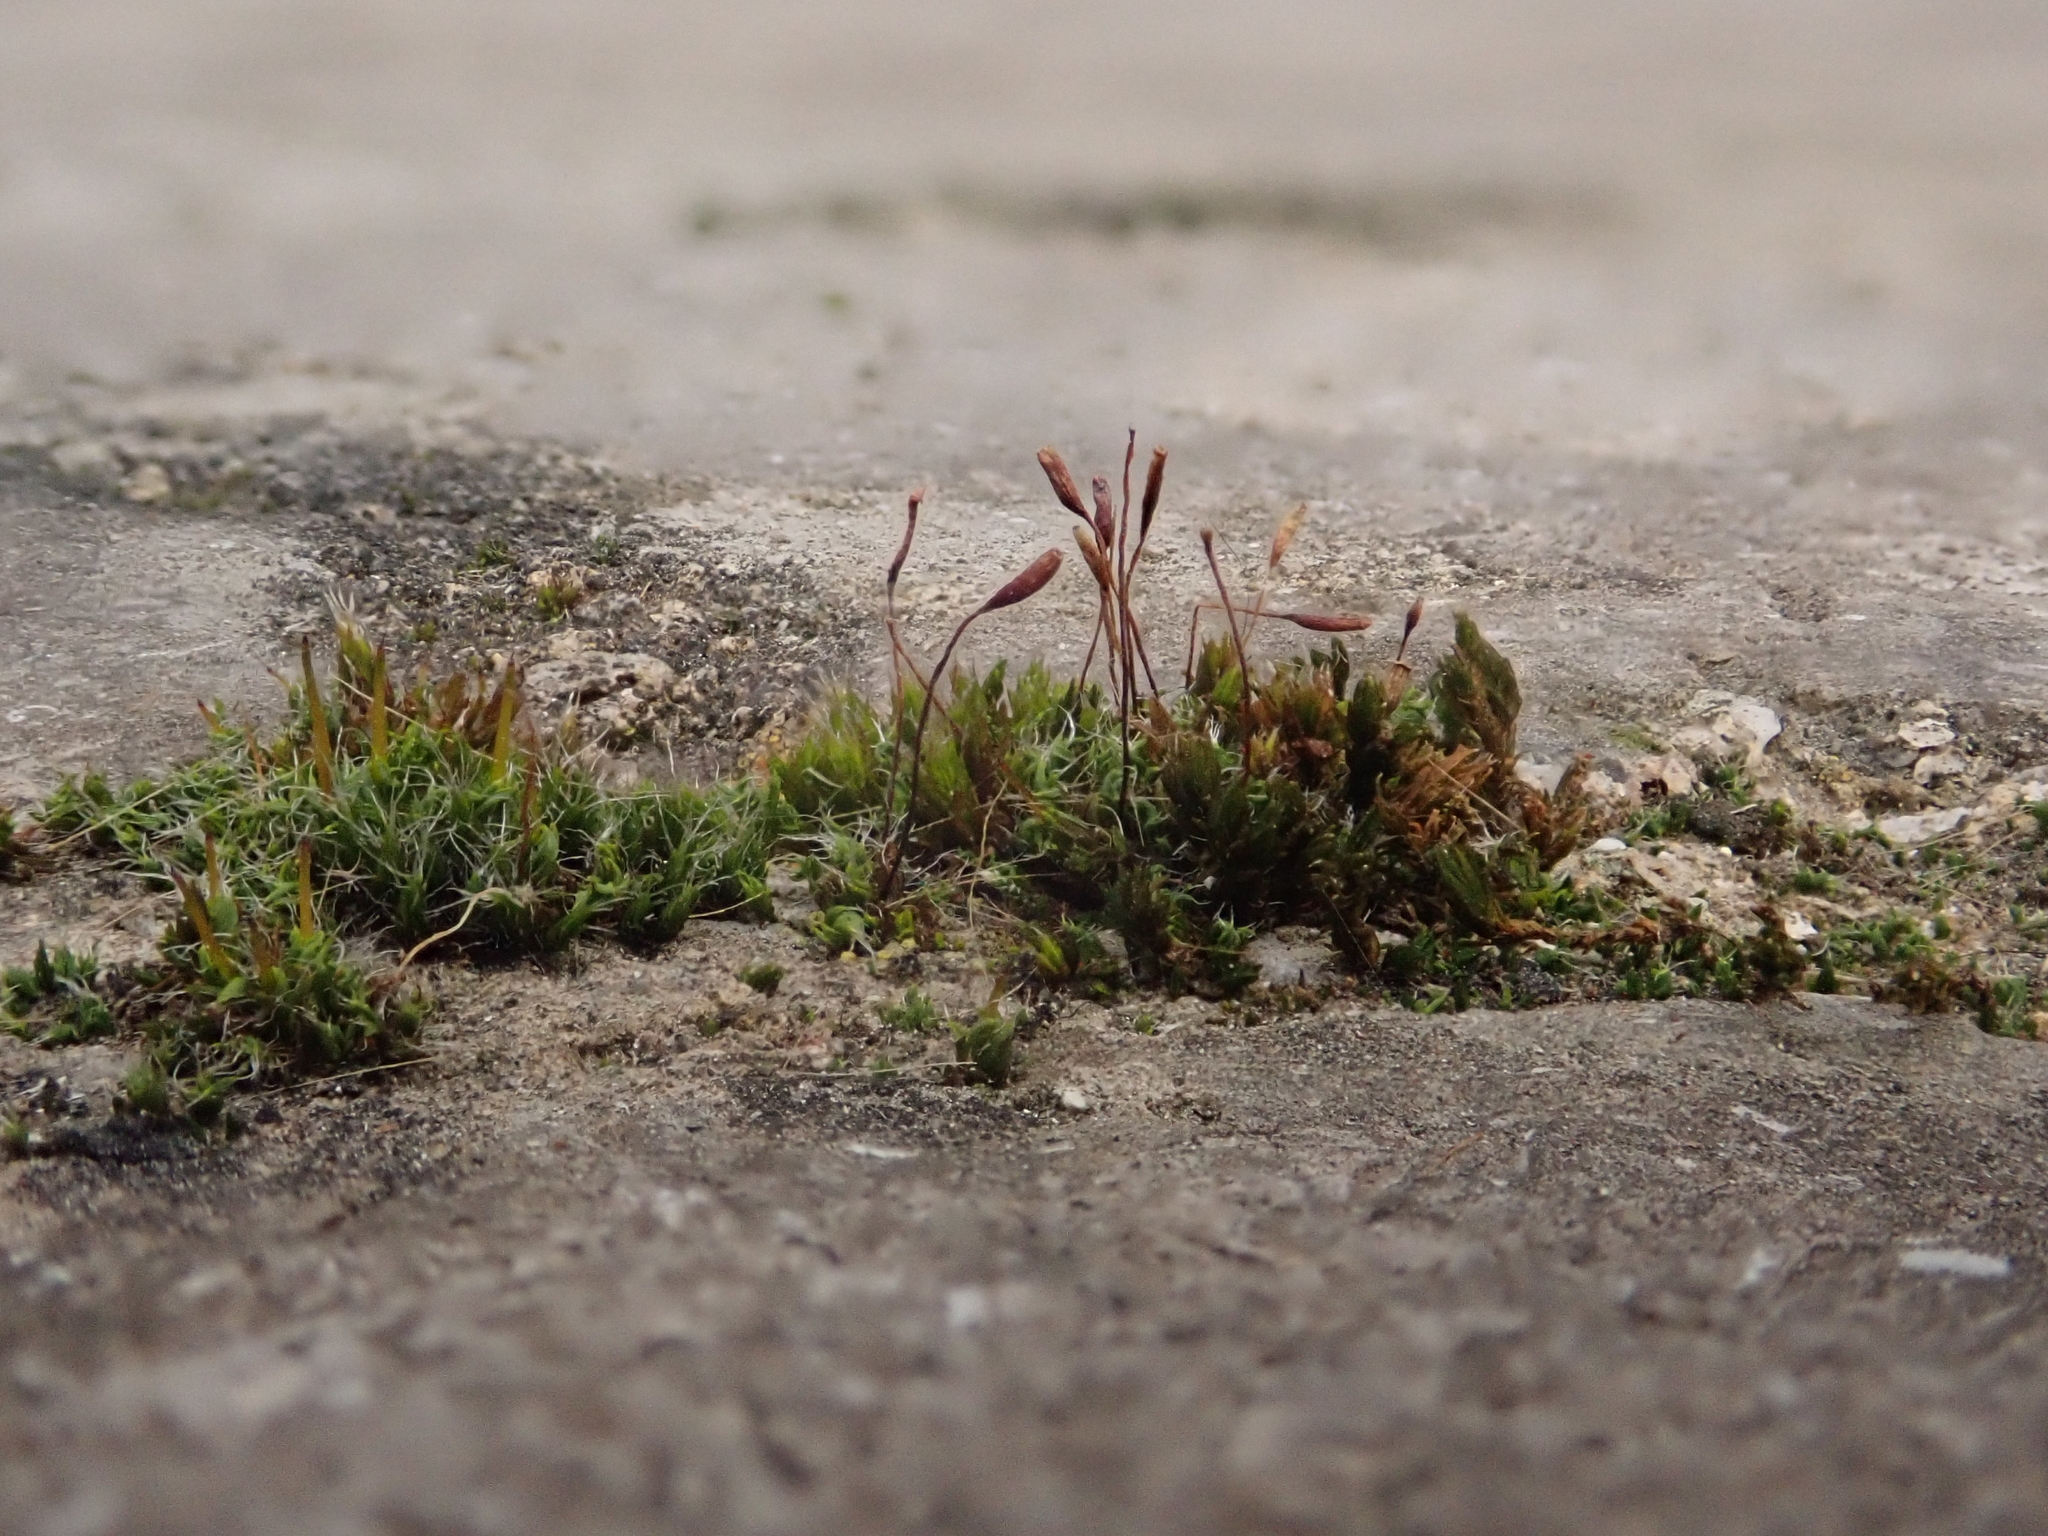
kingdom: Plantae
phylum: Bryophyta
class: Bryopsida
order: Pottiales
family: Pottiaceae
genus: Tortula
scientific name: Tortula muralis
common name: Wall screw-moss
